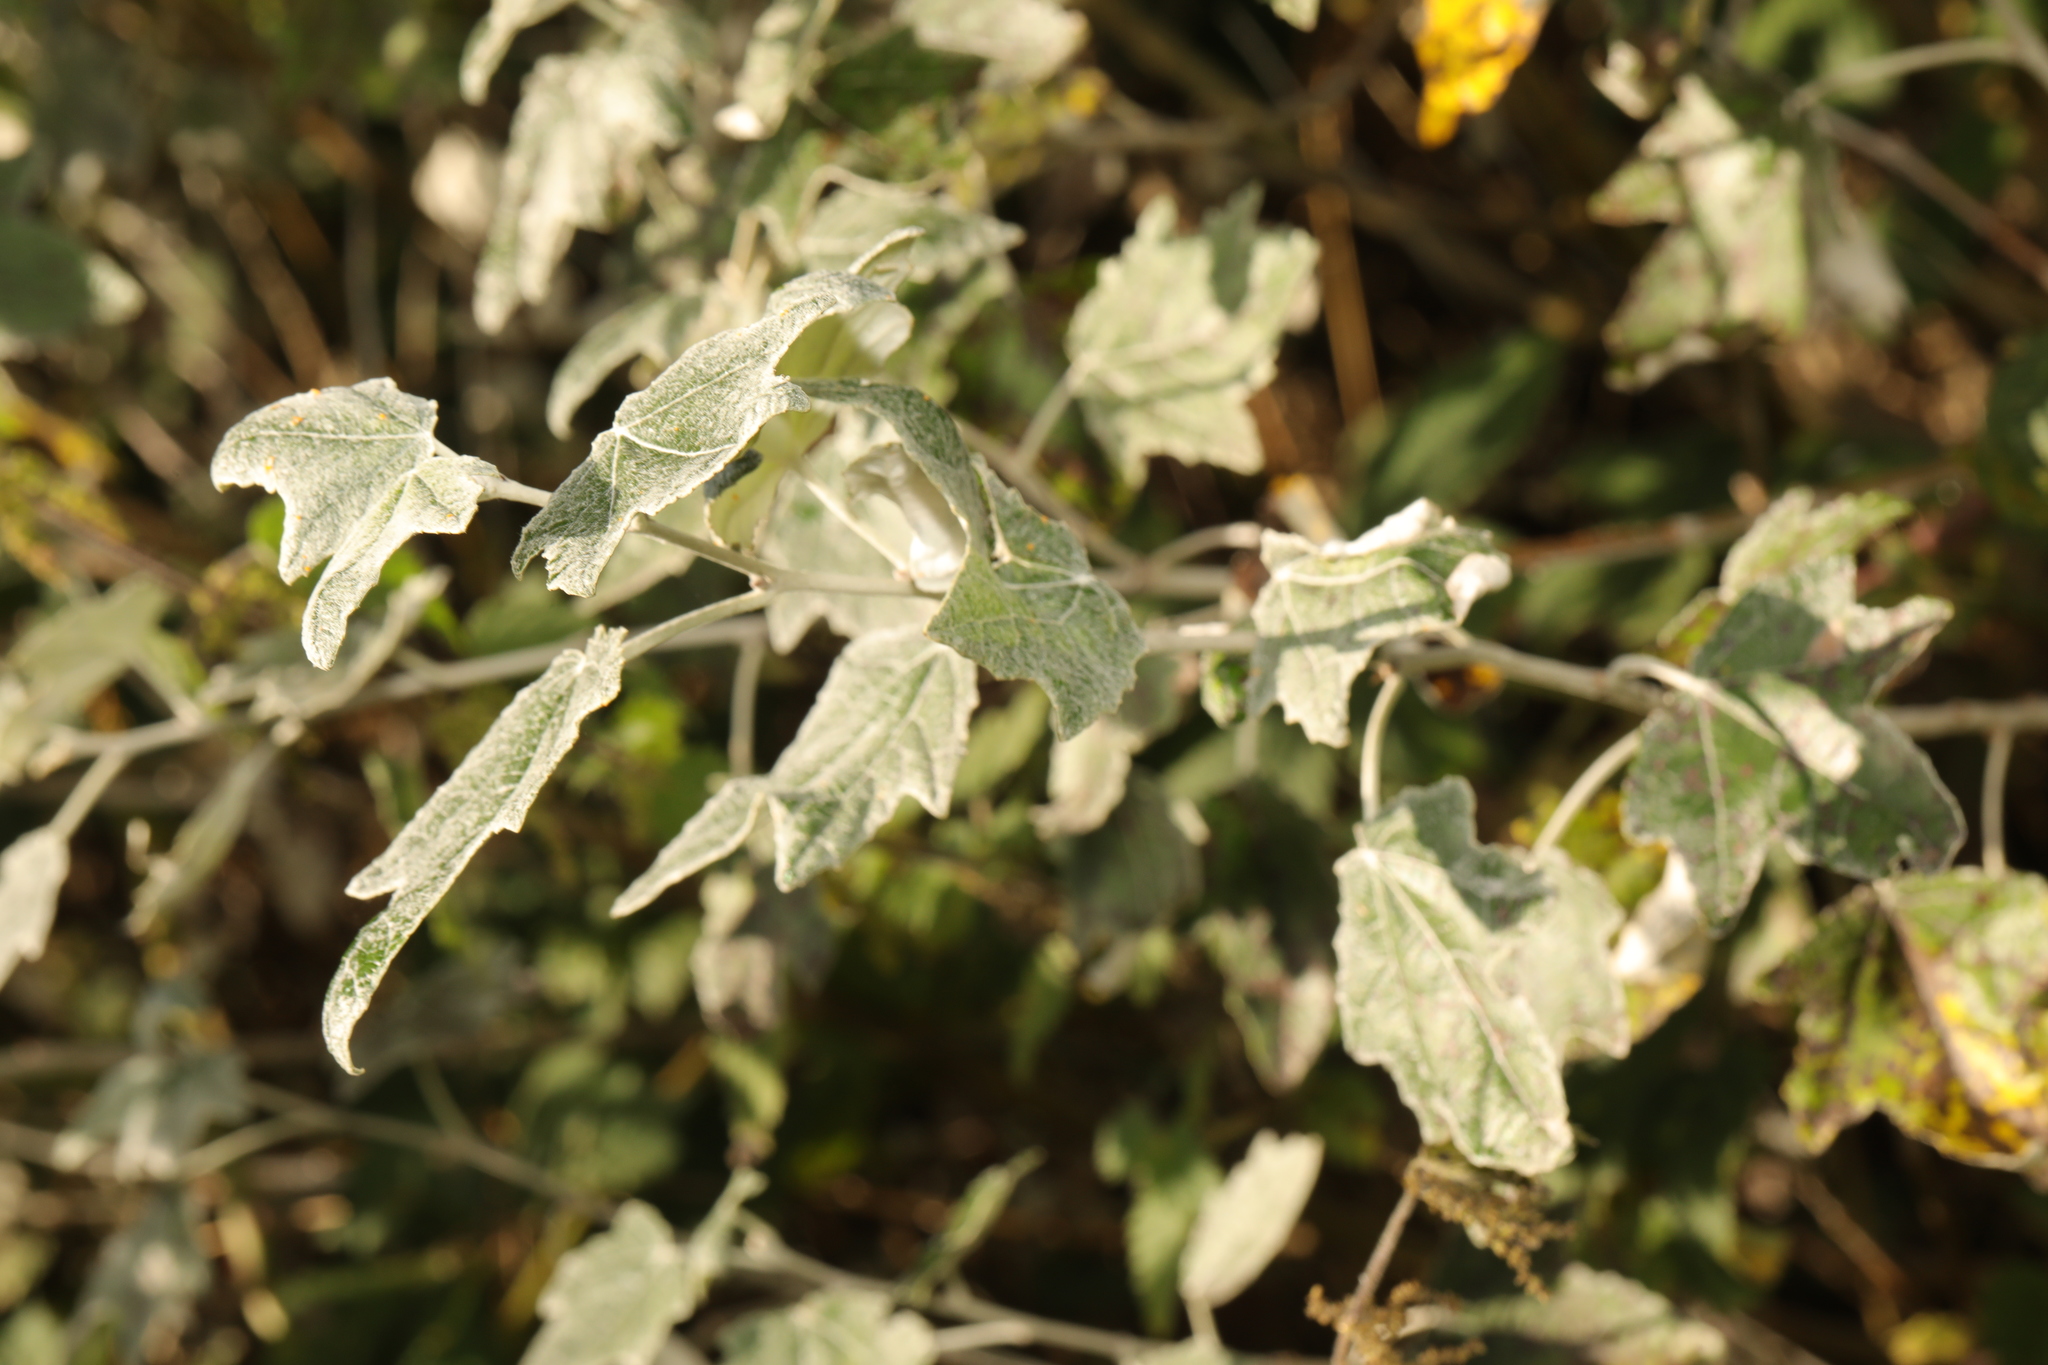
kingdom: Plantae
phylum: Tracheophyta
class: Magnoliopsida
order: Malpighiales
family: Salicaceae
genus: Populus
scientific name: Populus alba
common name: White poplar
